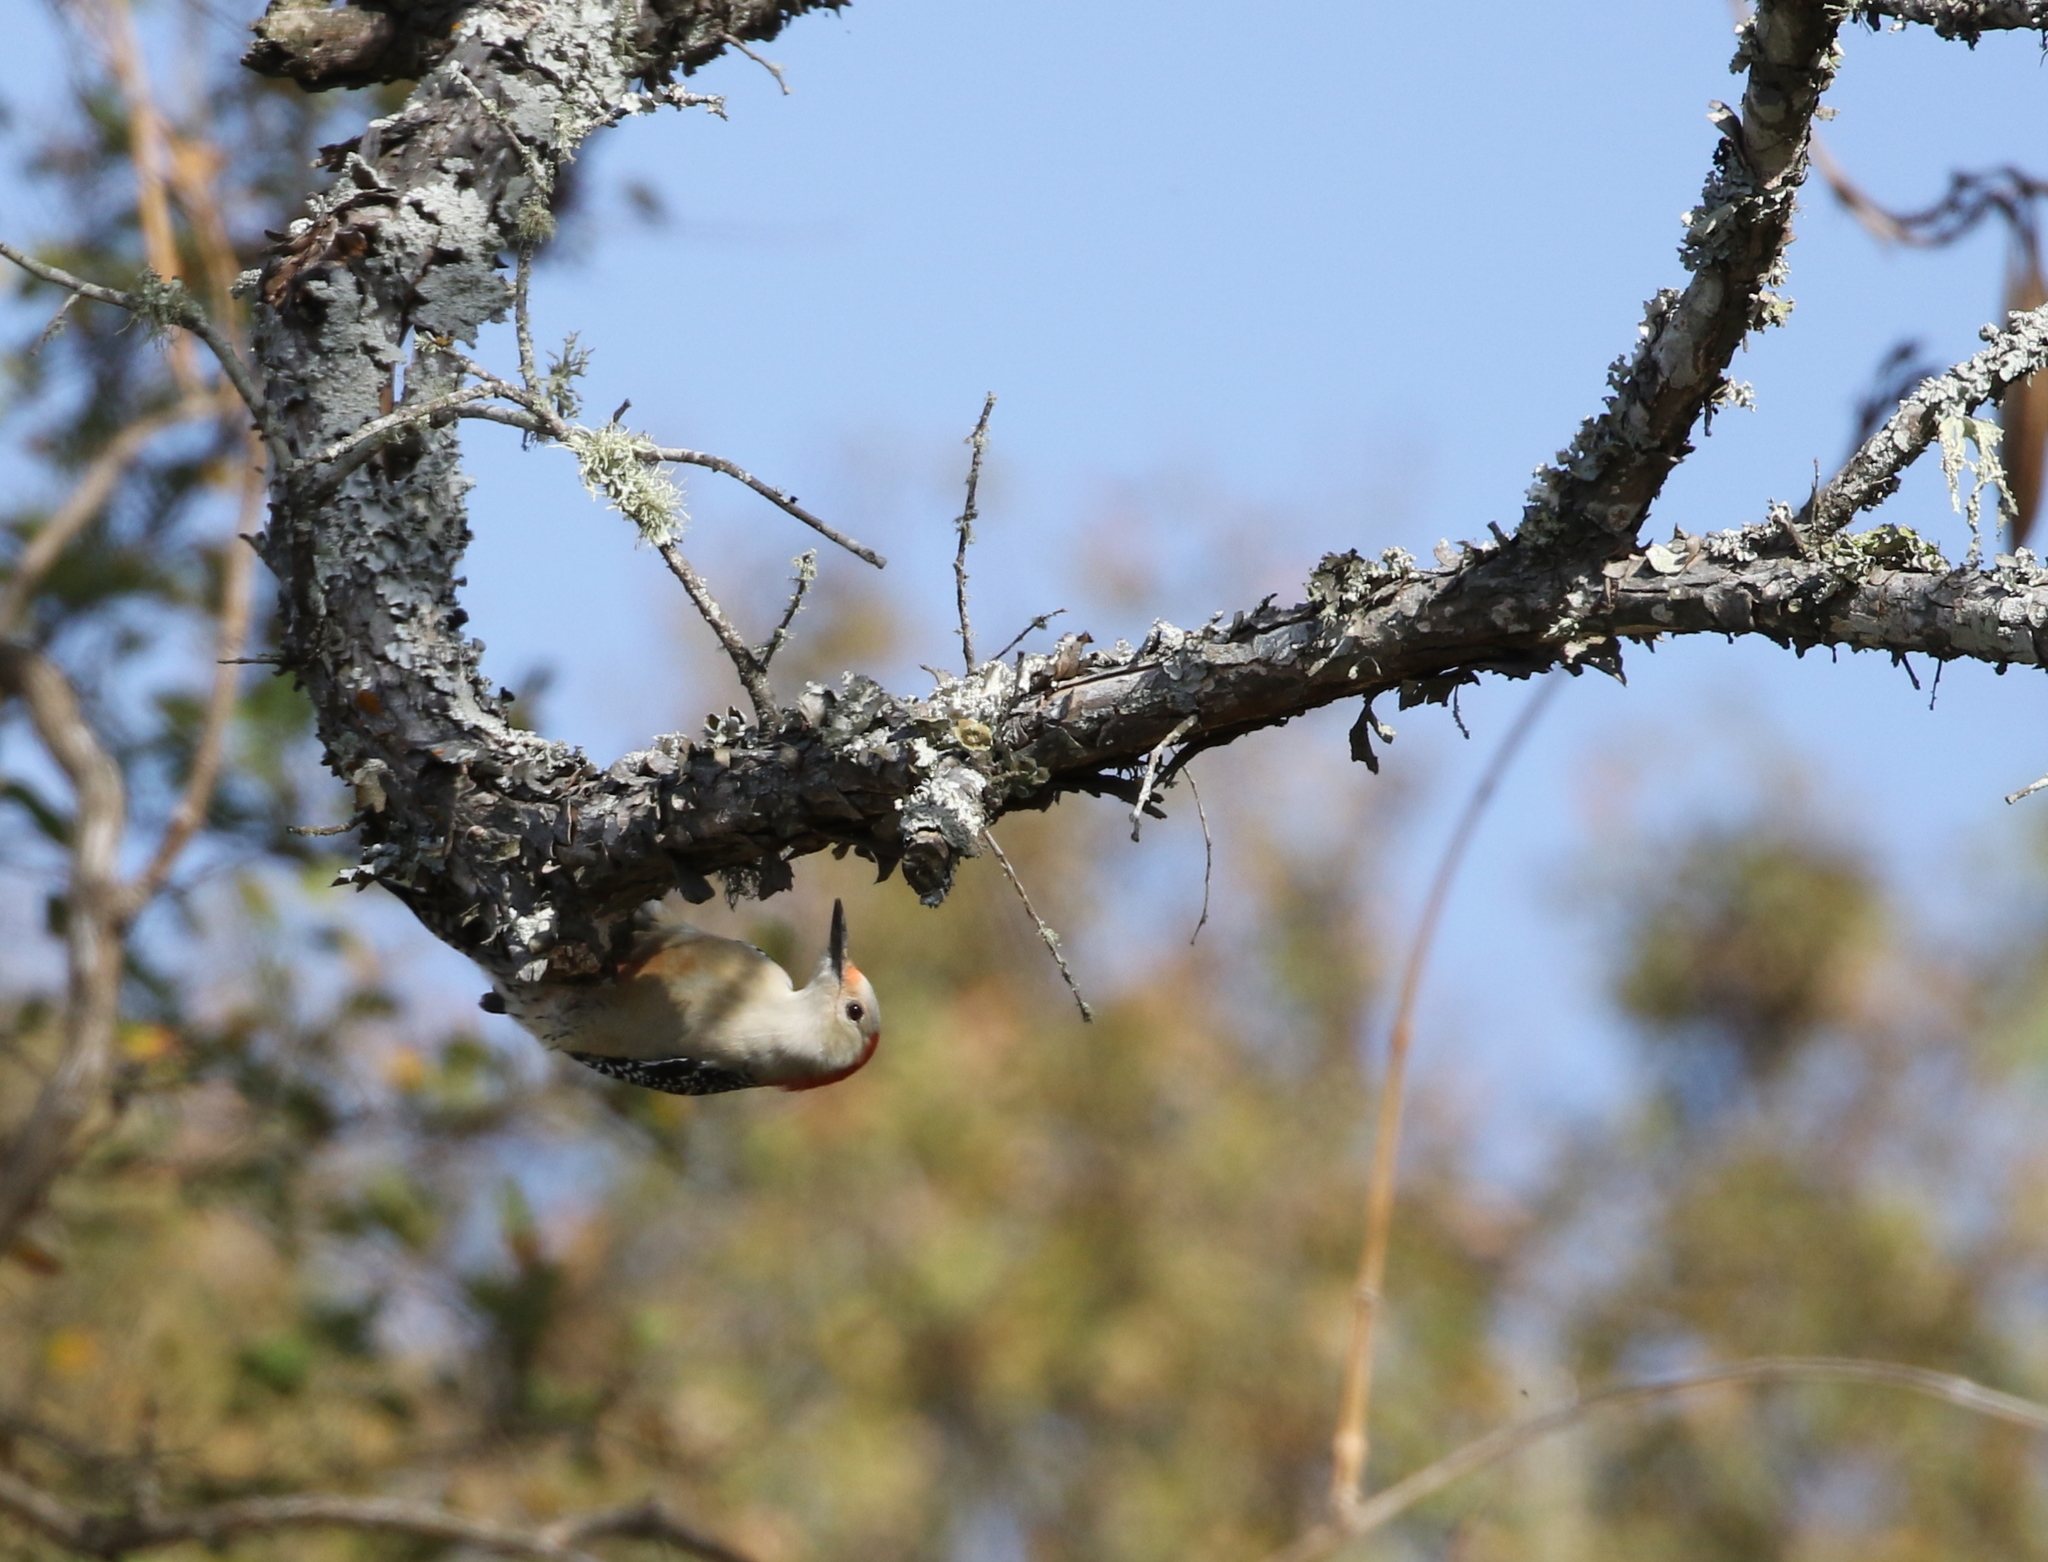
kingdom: Animalia
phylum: Chordata
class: Aves
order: Piciformes
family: Picidae
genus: Melanerpes
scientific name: Melanerpes carolinus
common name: Red-bellied woodpecker
